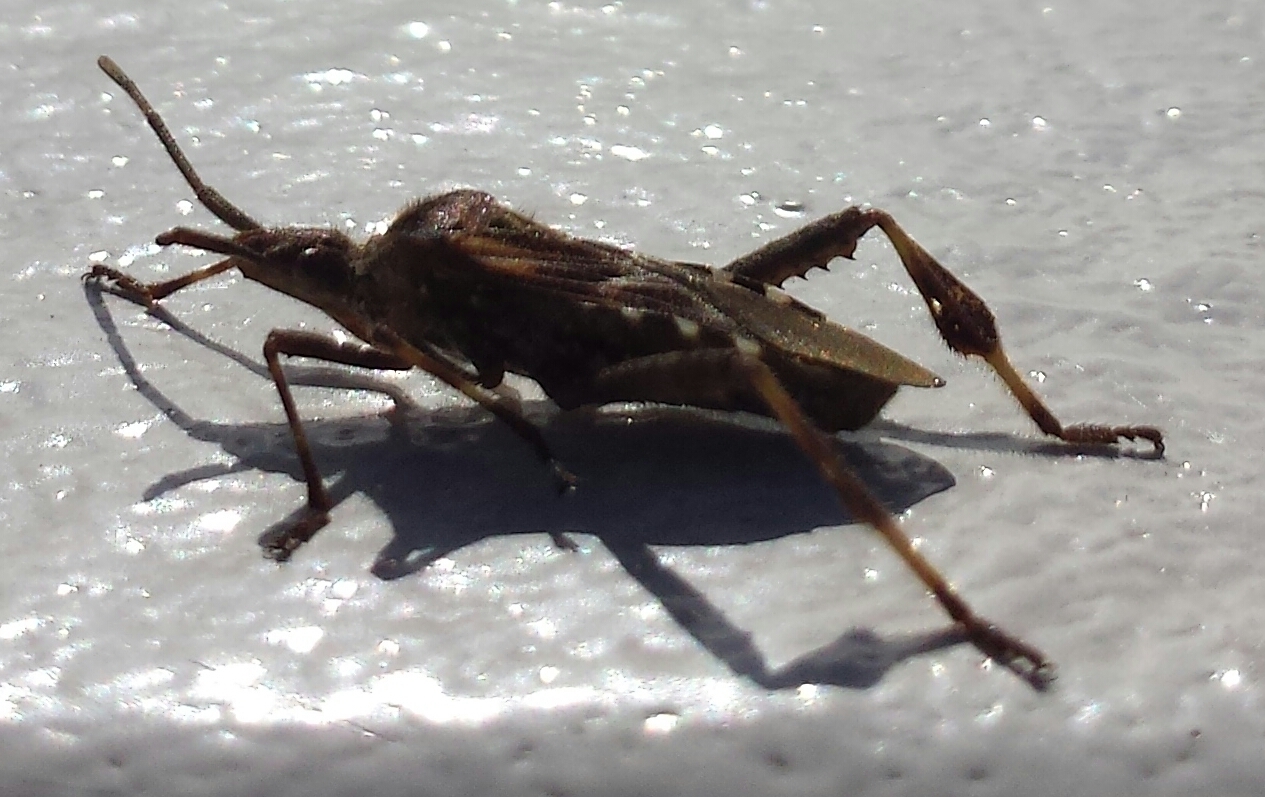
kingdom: Animalia
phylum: Arthropoda
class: Insecta
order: Hemiptera
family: Coreidae
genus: Leptoglossus
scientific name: Leptoglossus occidentalis
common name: Western conifer-seed bug
